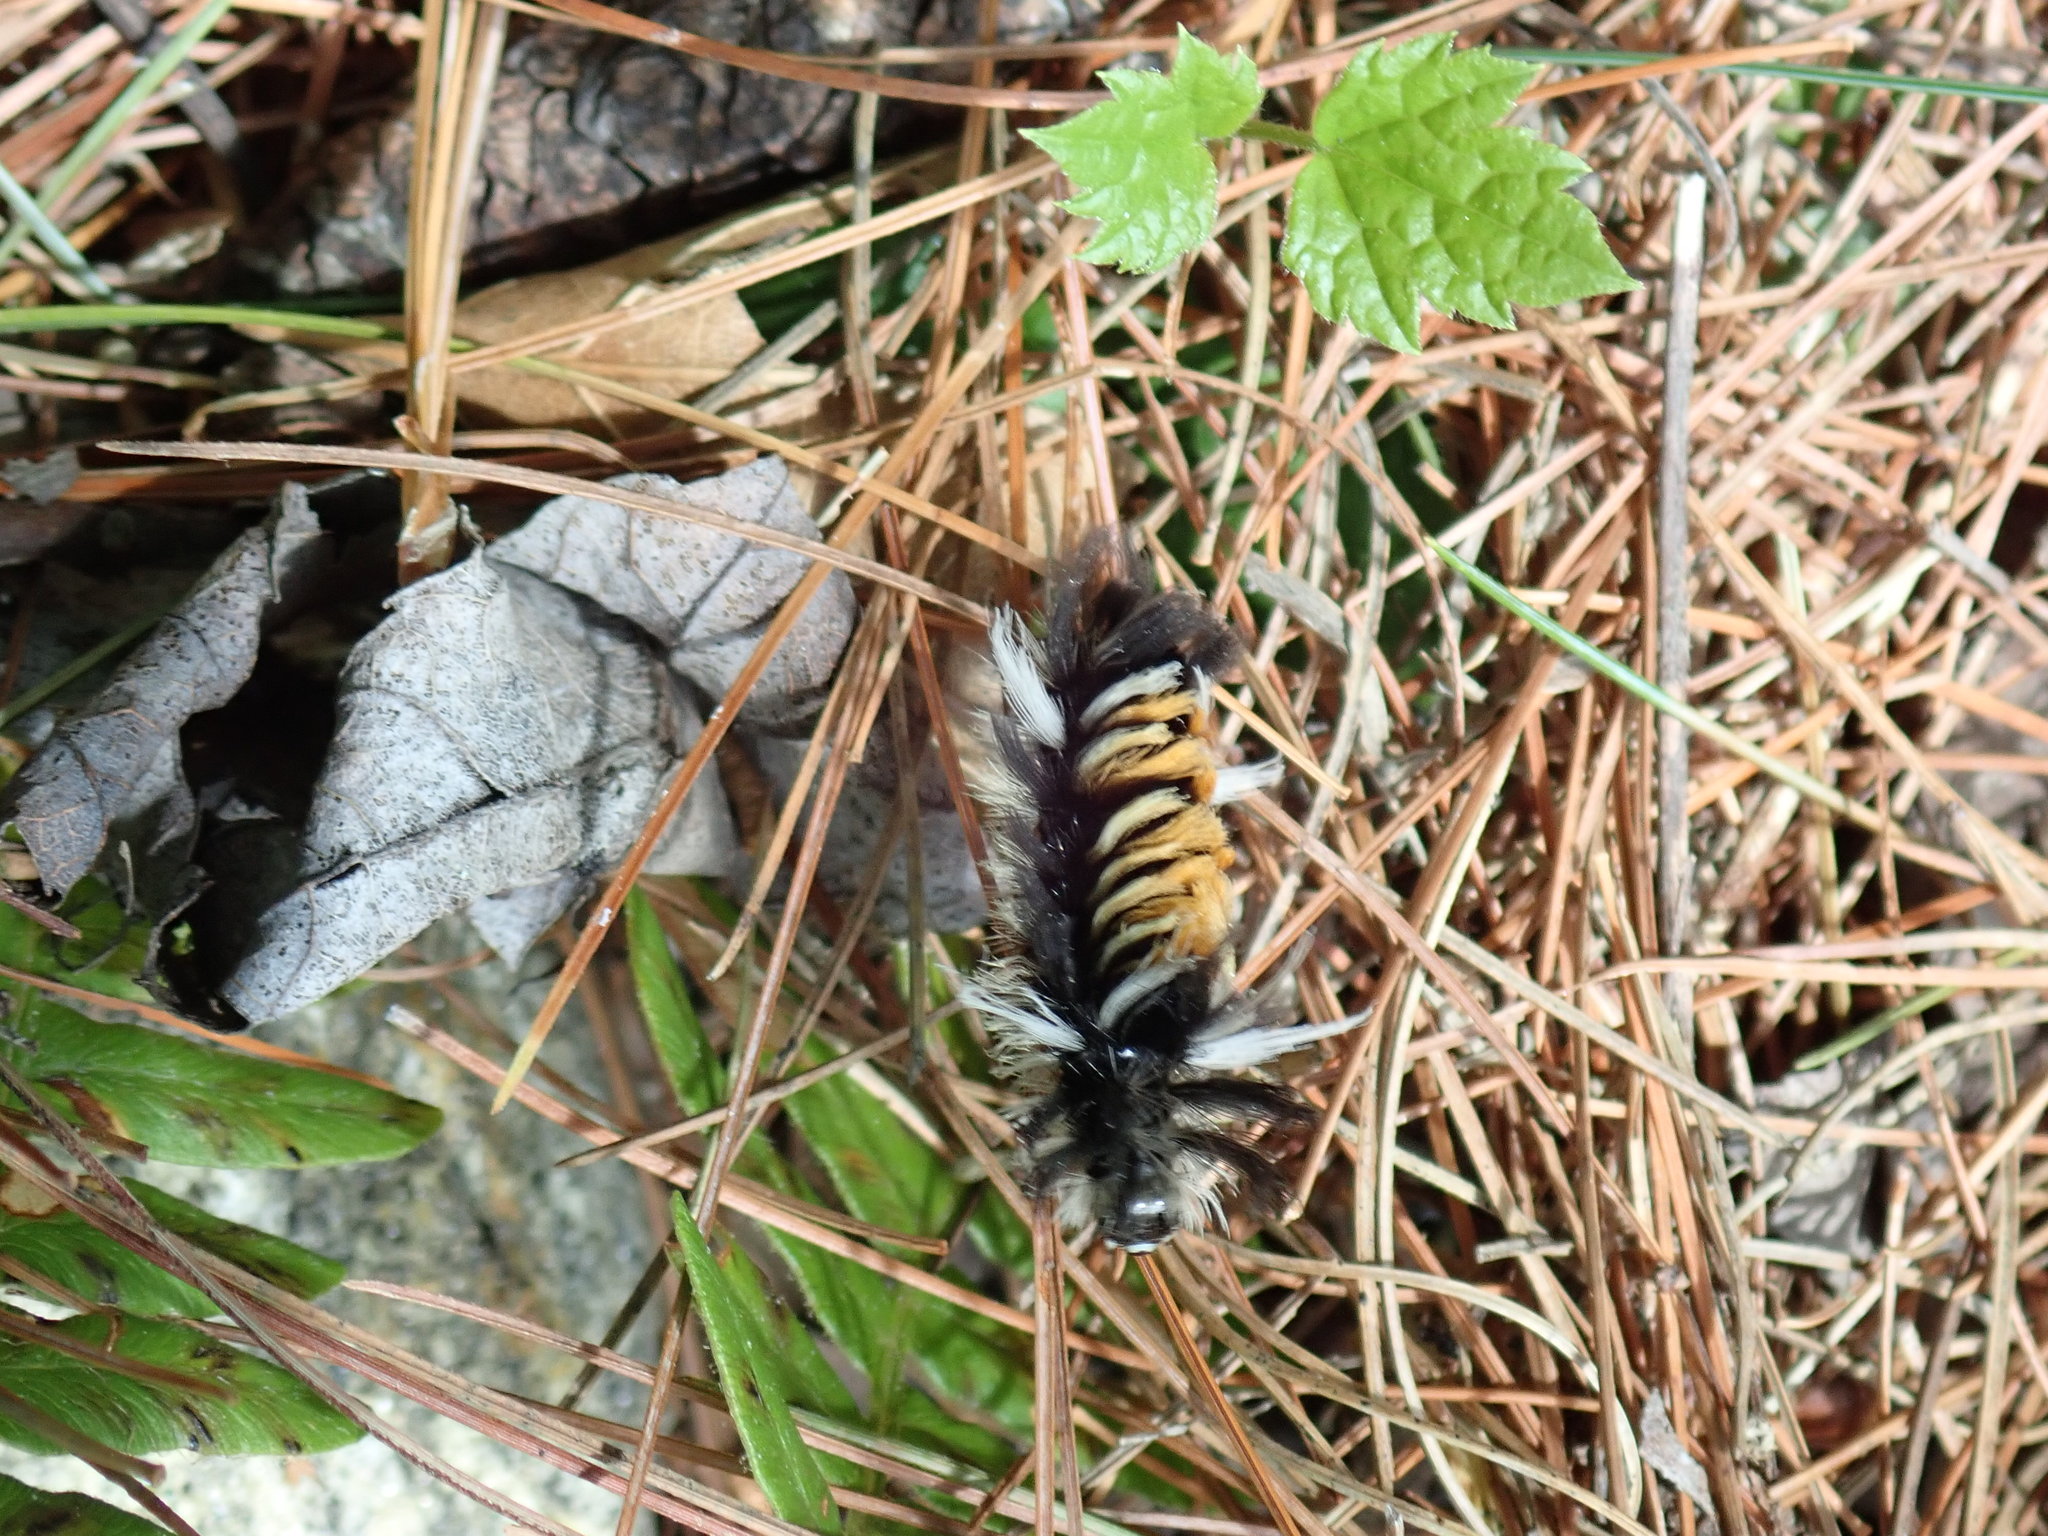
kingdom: Animalia
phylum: Arthropoda
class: Insecta
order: Lepidoptera
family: Erebidae
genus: Euchaetes
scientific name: Euchaetes egle
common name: Milkweed tussock moth
